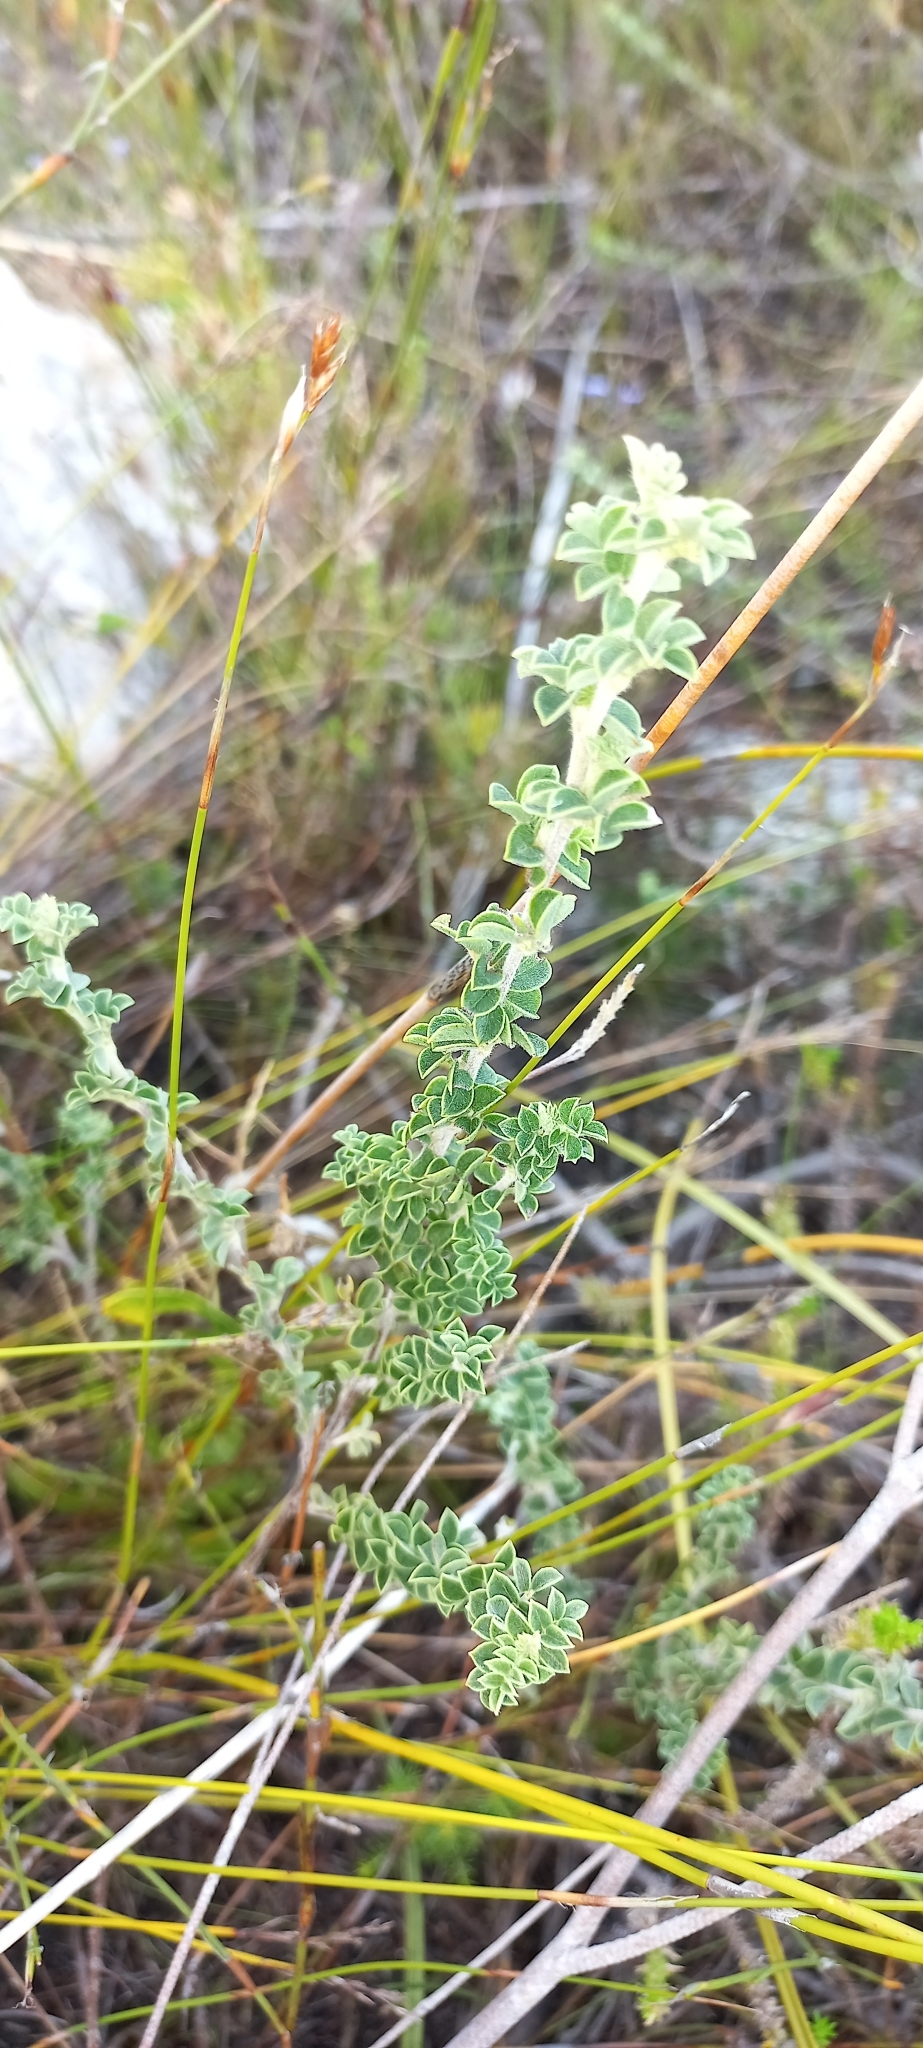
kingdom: Plantae
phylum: Tracheophyta
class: Magnoliopsida
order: Fabales
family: Fabaceae
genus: Indigofera
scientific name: Indigofera alopecuroides
